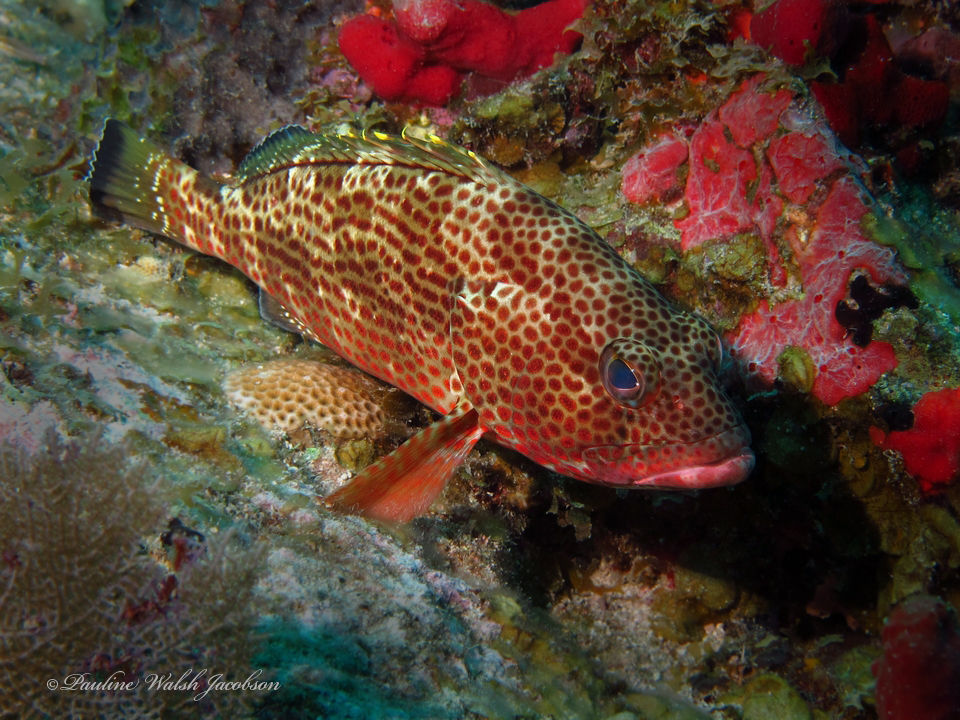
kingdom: Animalia
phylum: Chordata
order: Perciformes
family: Serranidae
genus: Epinephelus
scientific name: Epinephelus guttatus
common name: Red hind
